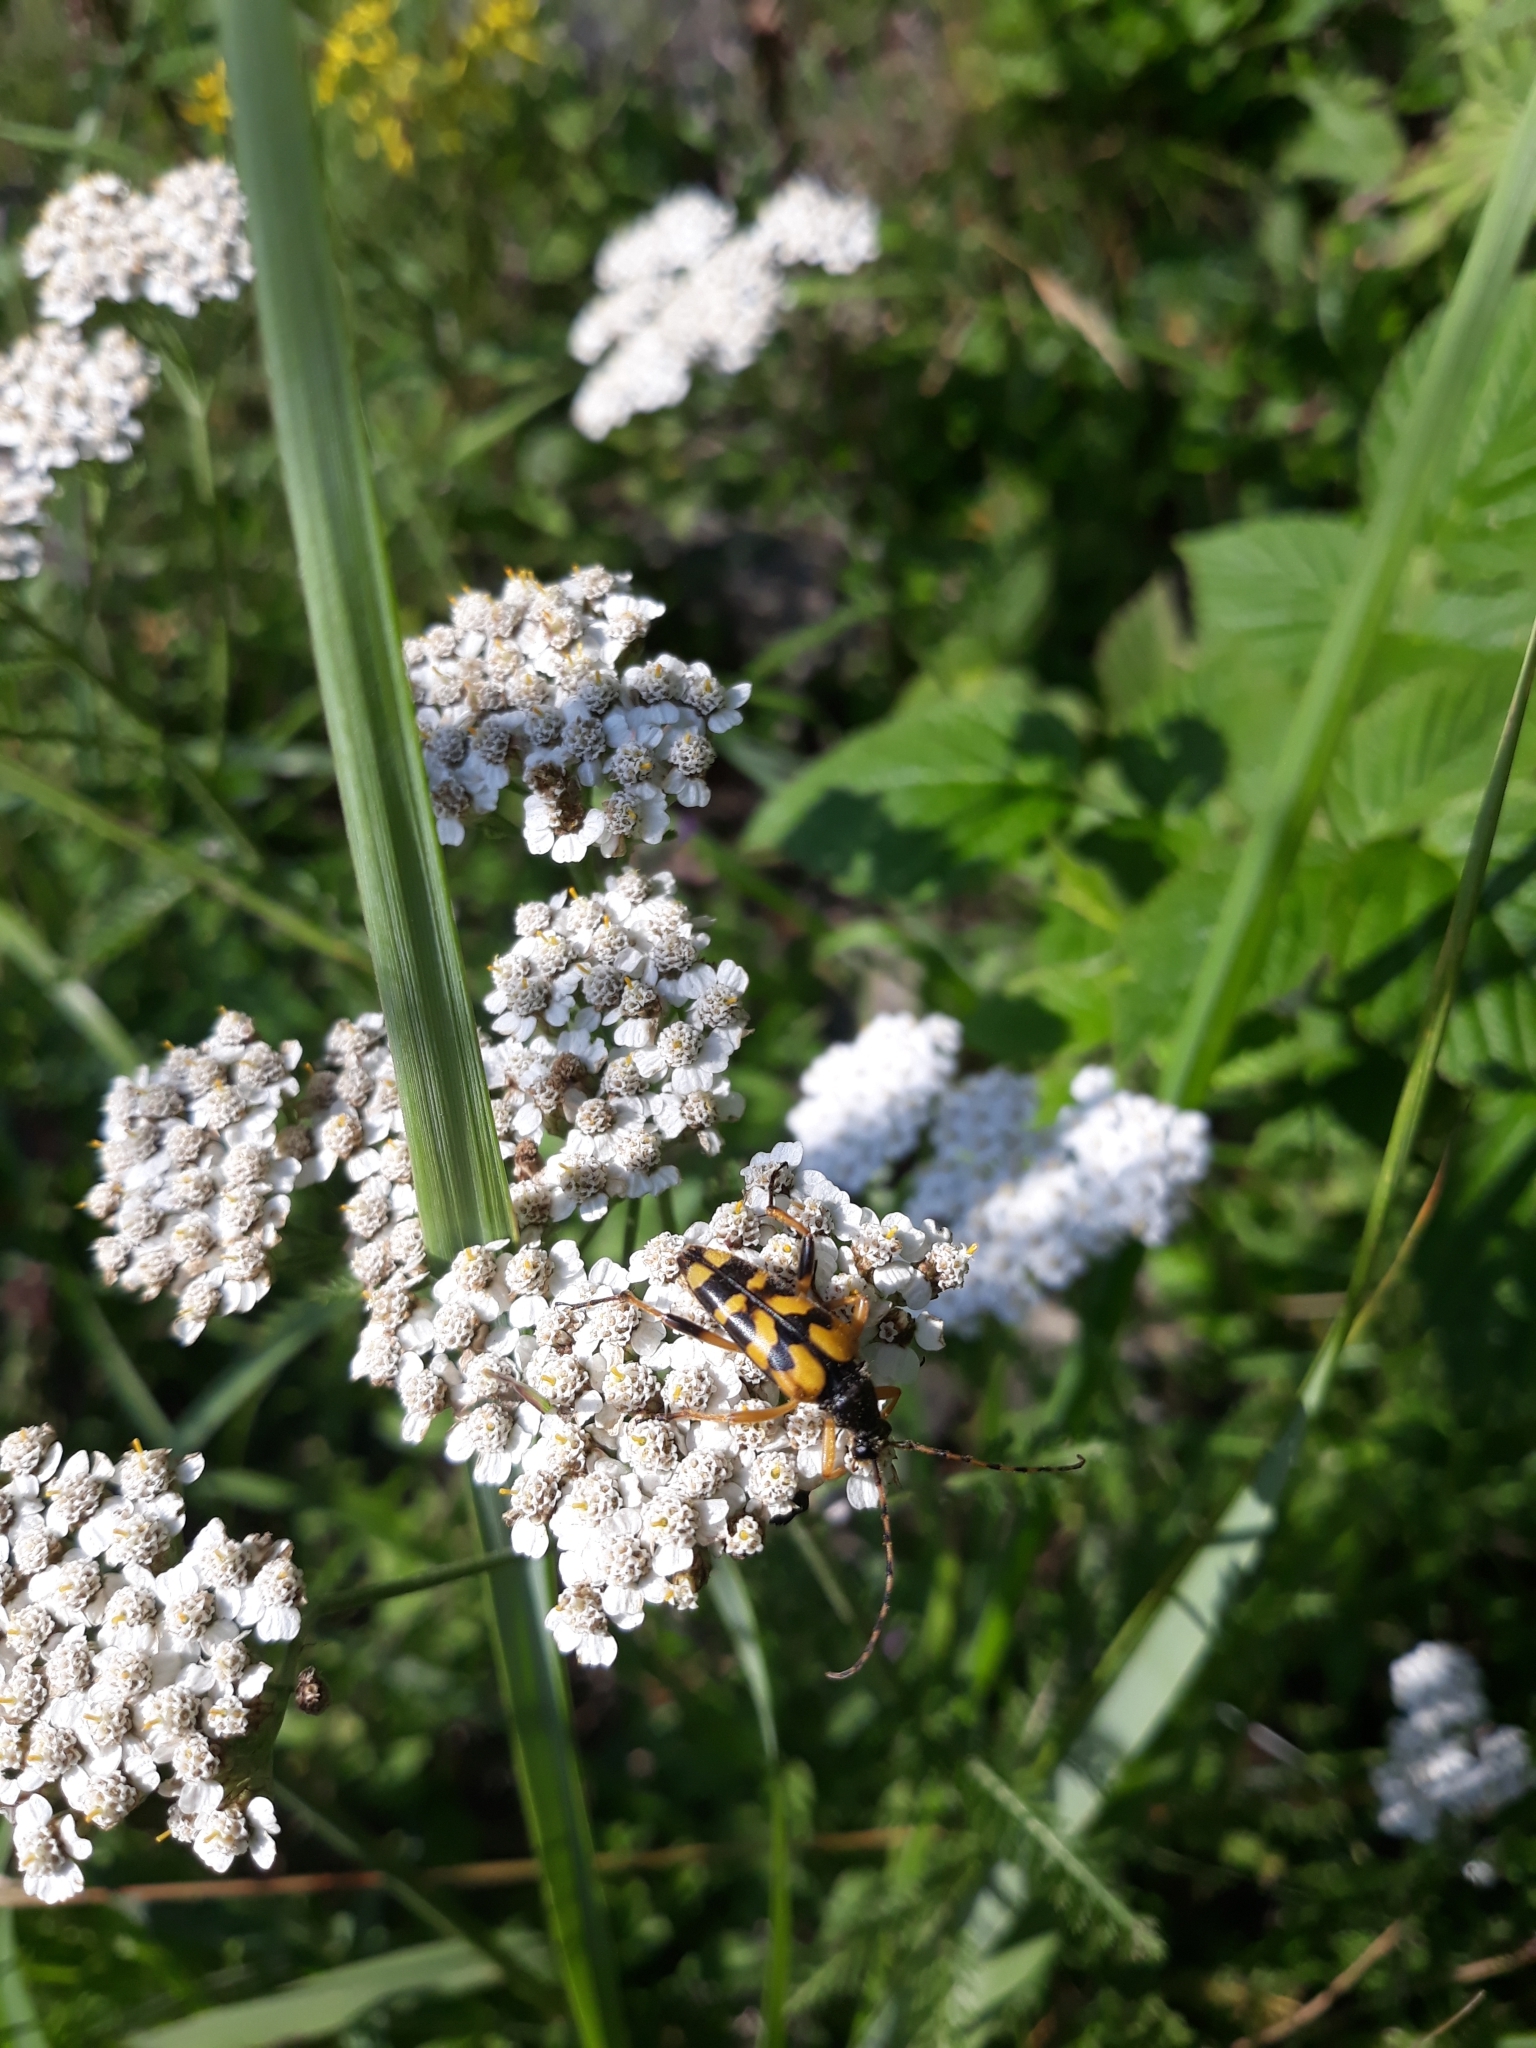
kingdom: Animalia
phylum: Arthropoda
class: Insecta
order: Coleoptera
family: Cerambycidae
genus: Rutpela
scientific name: Rutpela maculata
